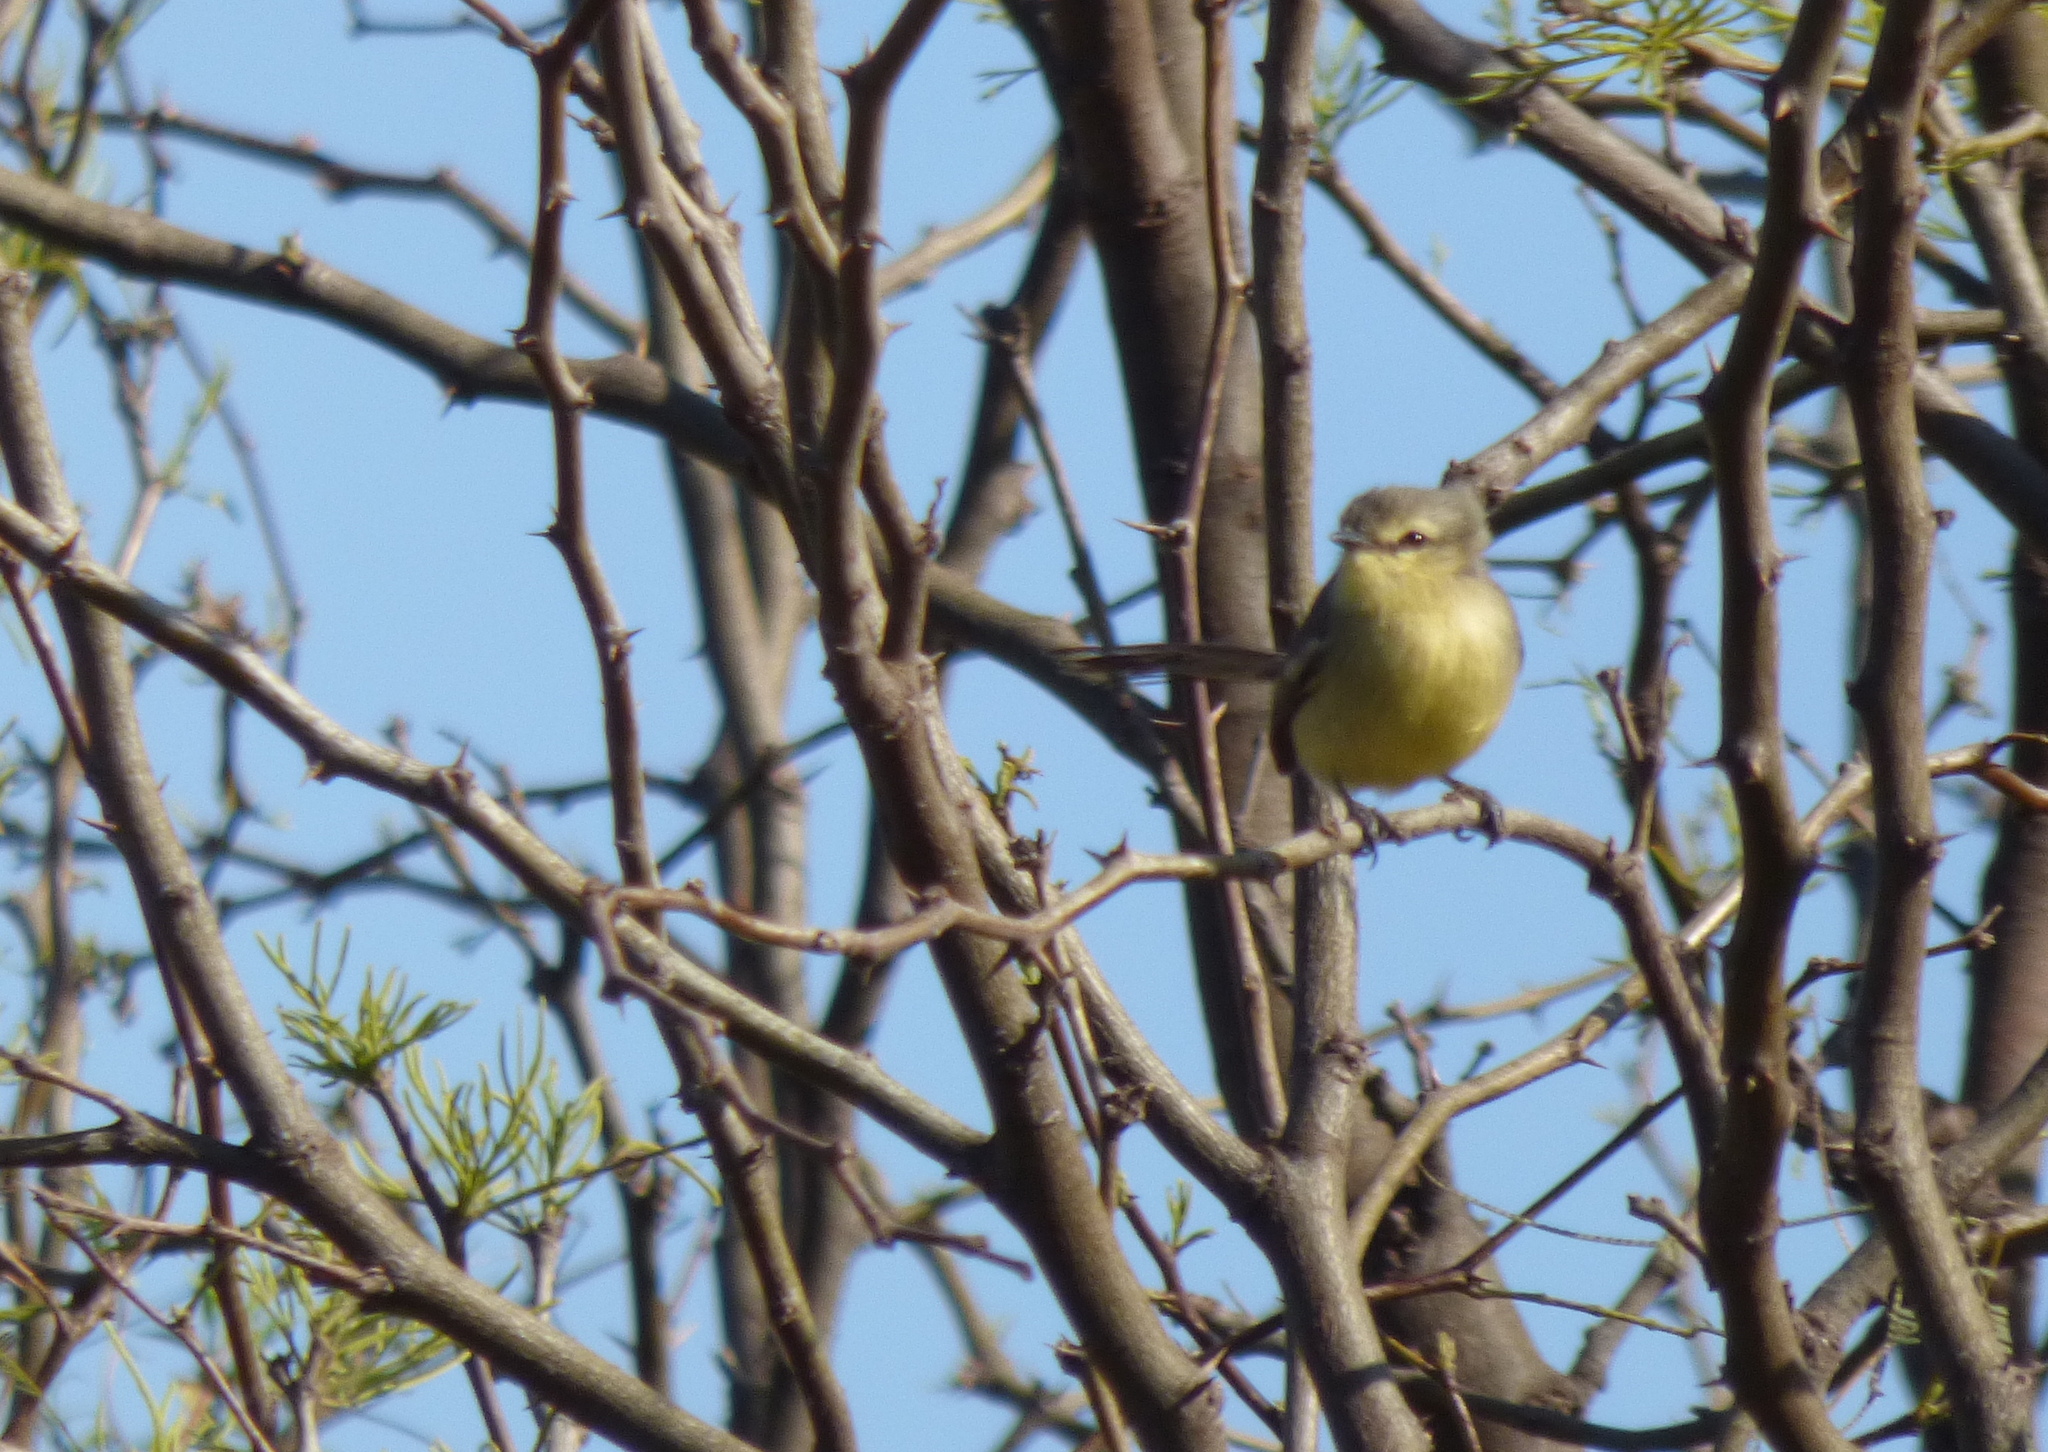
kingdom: Animalia
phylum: Chordata
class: Aves
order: Passeriformes
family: Tyrannidae
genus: Stigmatura
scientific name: Stigmatura budytoides
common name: Greater wagtail-tyrant
